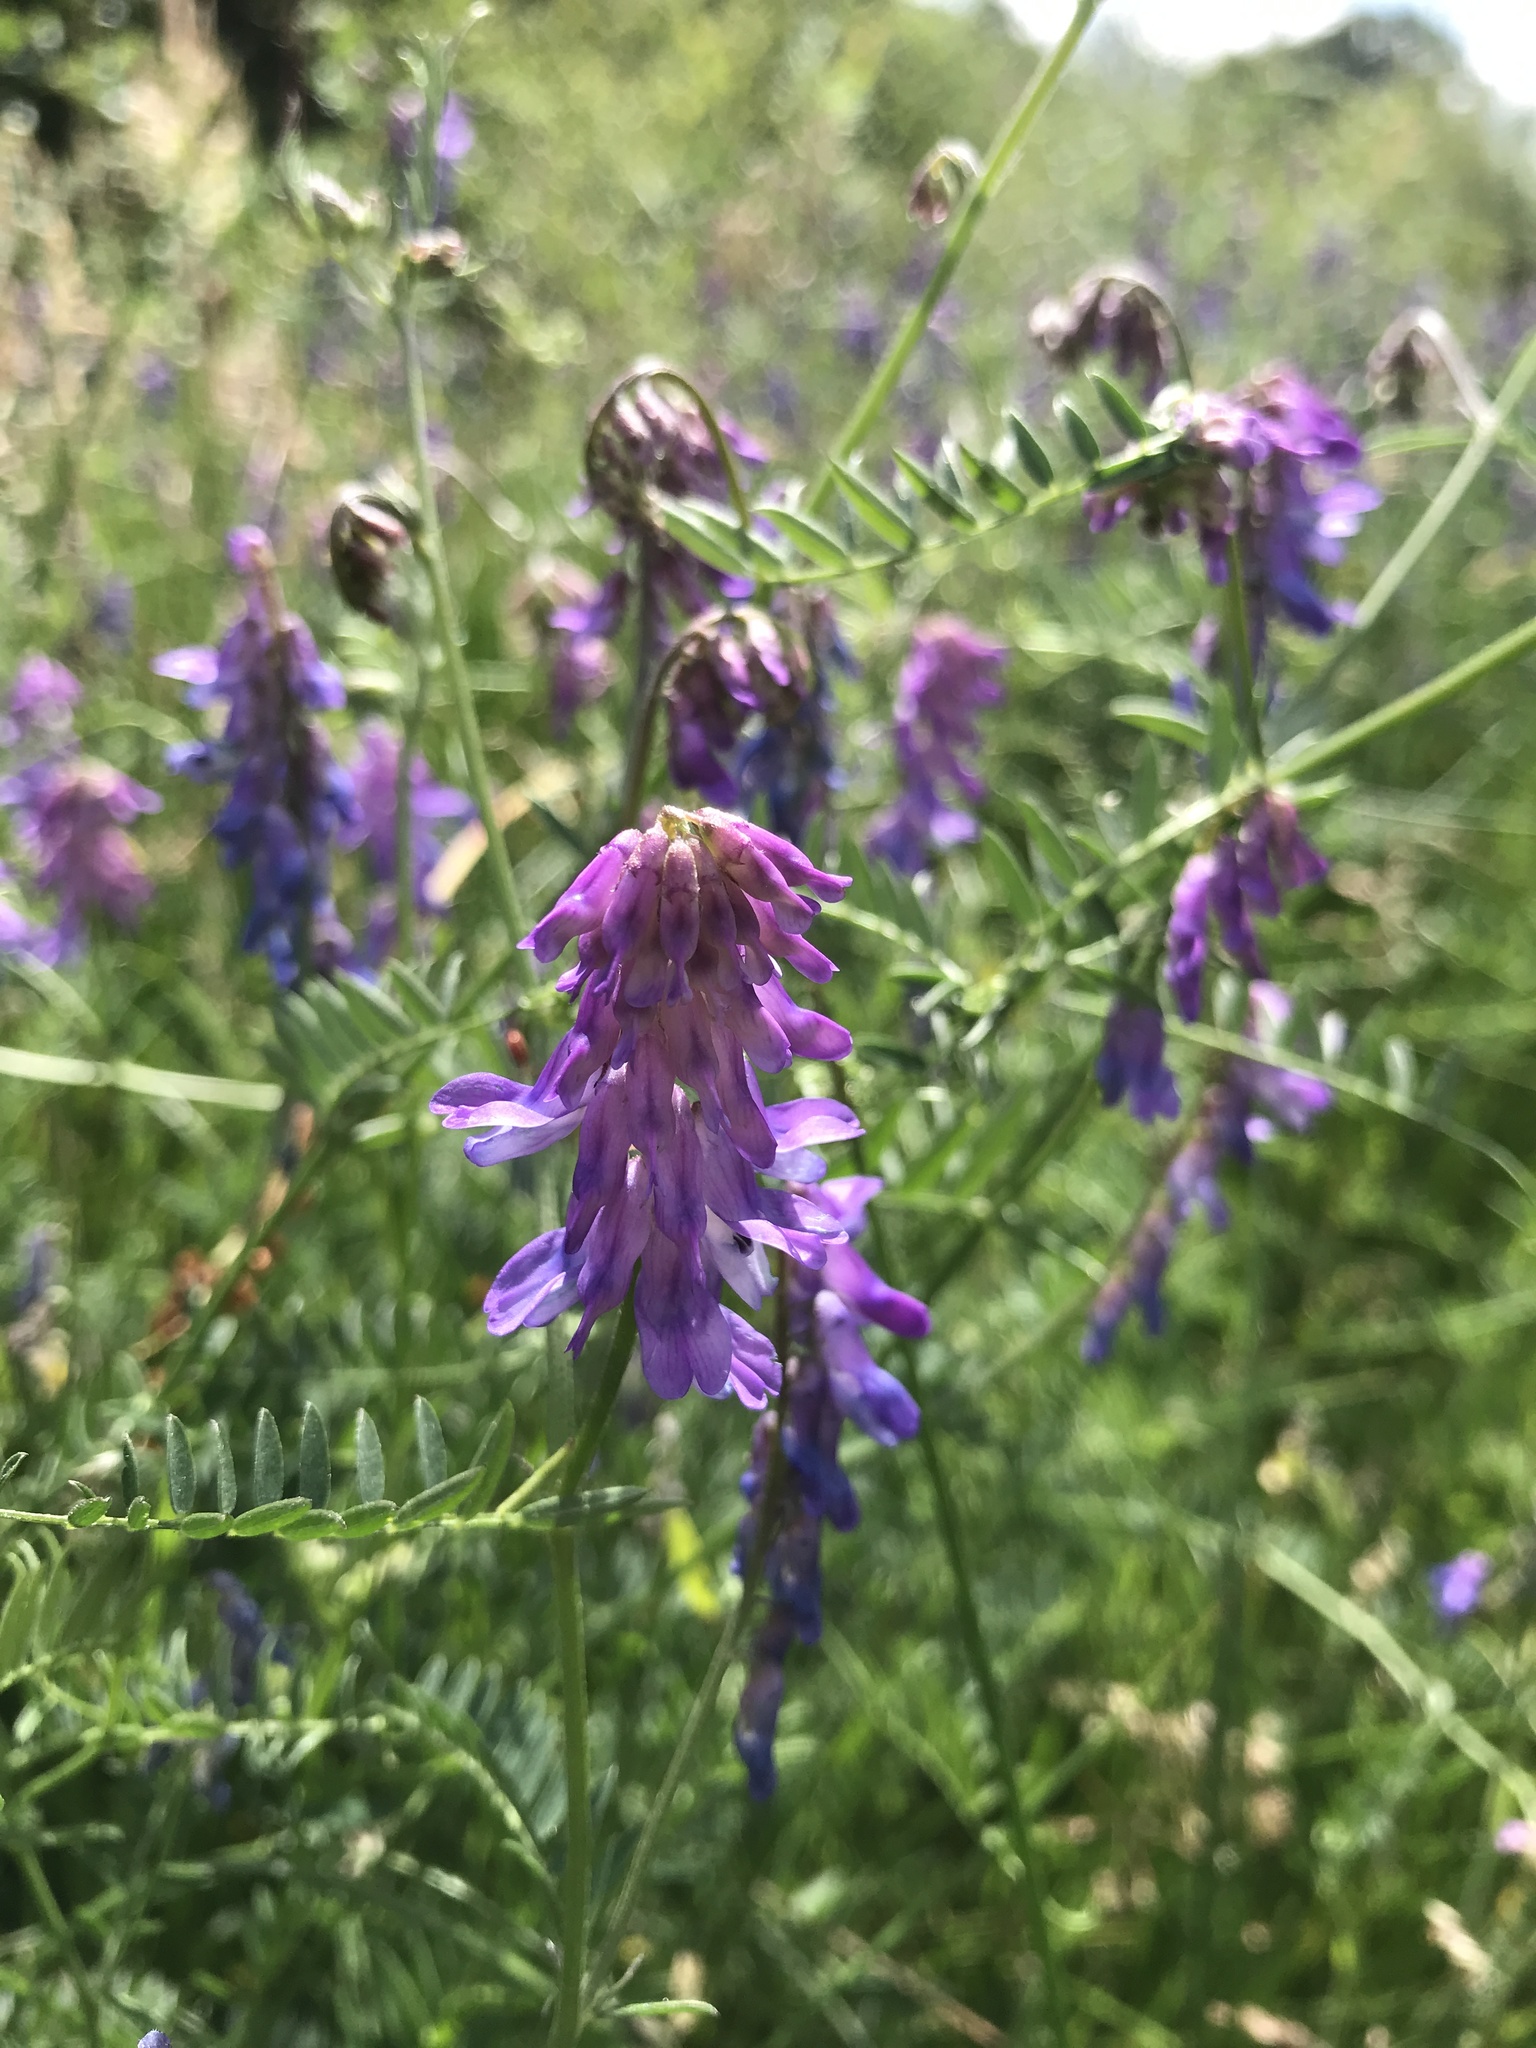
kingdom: Plantae
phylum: Tracheophyta
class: Magnoliopsida
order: Fabales
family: Fabaceae
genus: Vicia
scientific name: Vicia cracca
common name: Bird vetch
